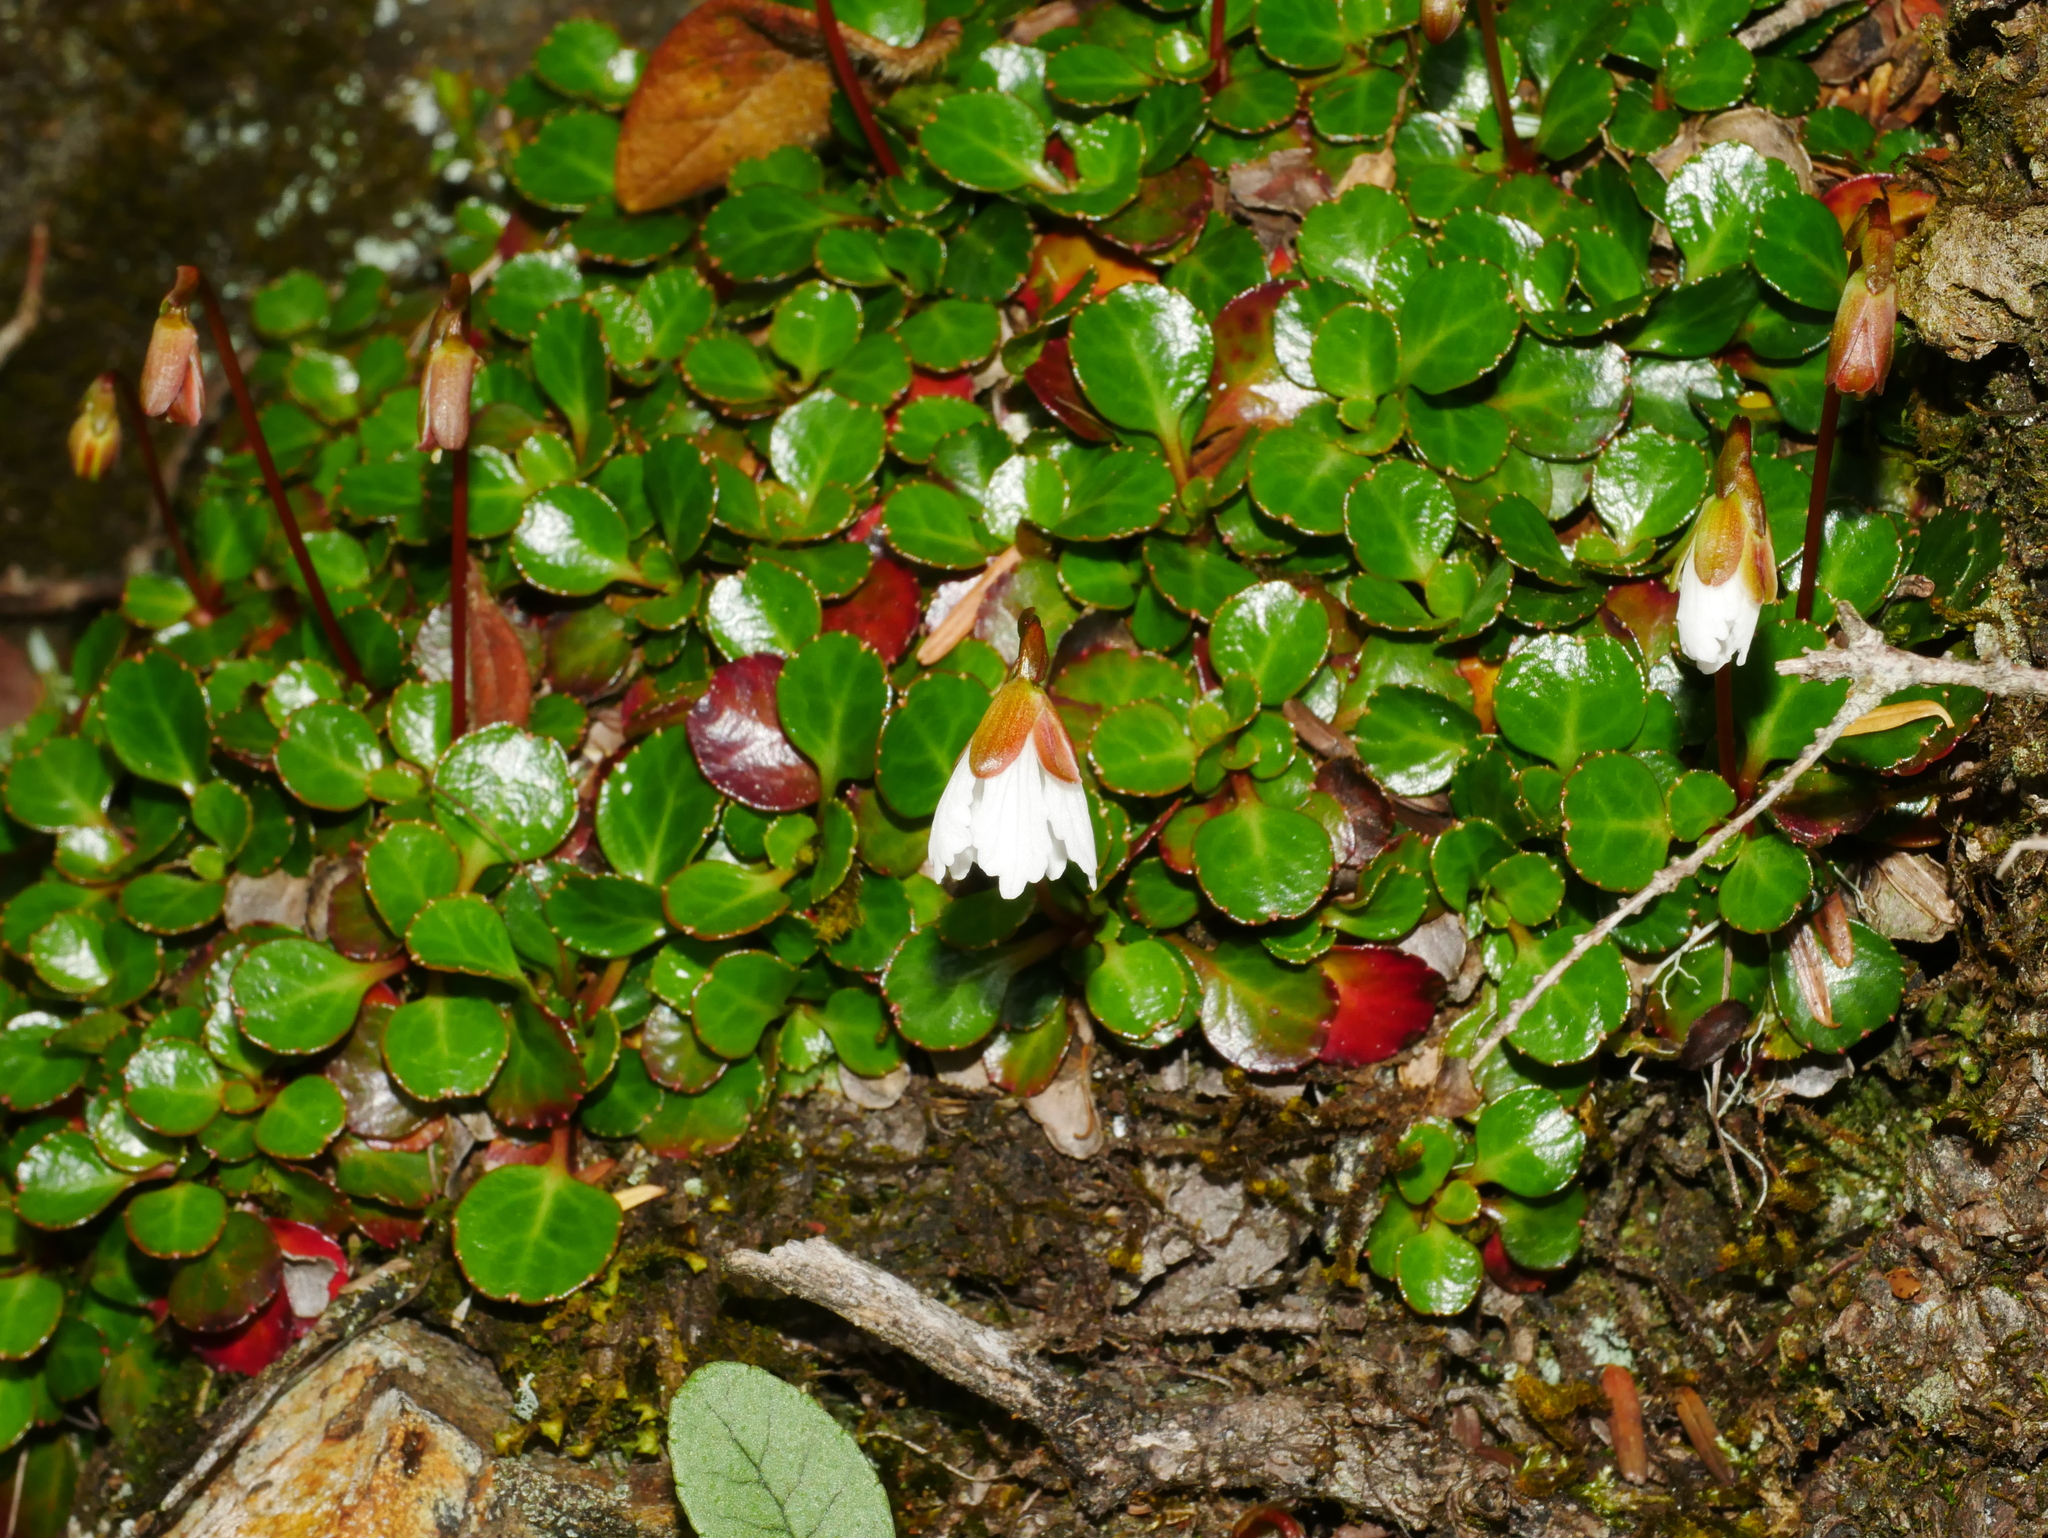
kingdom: Plantae
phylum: Tracheophyta
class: Magnoliopsida
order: Ericales
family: Diapensiaceae
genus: Shortia
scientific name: Shortia rotundifolia
